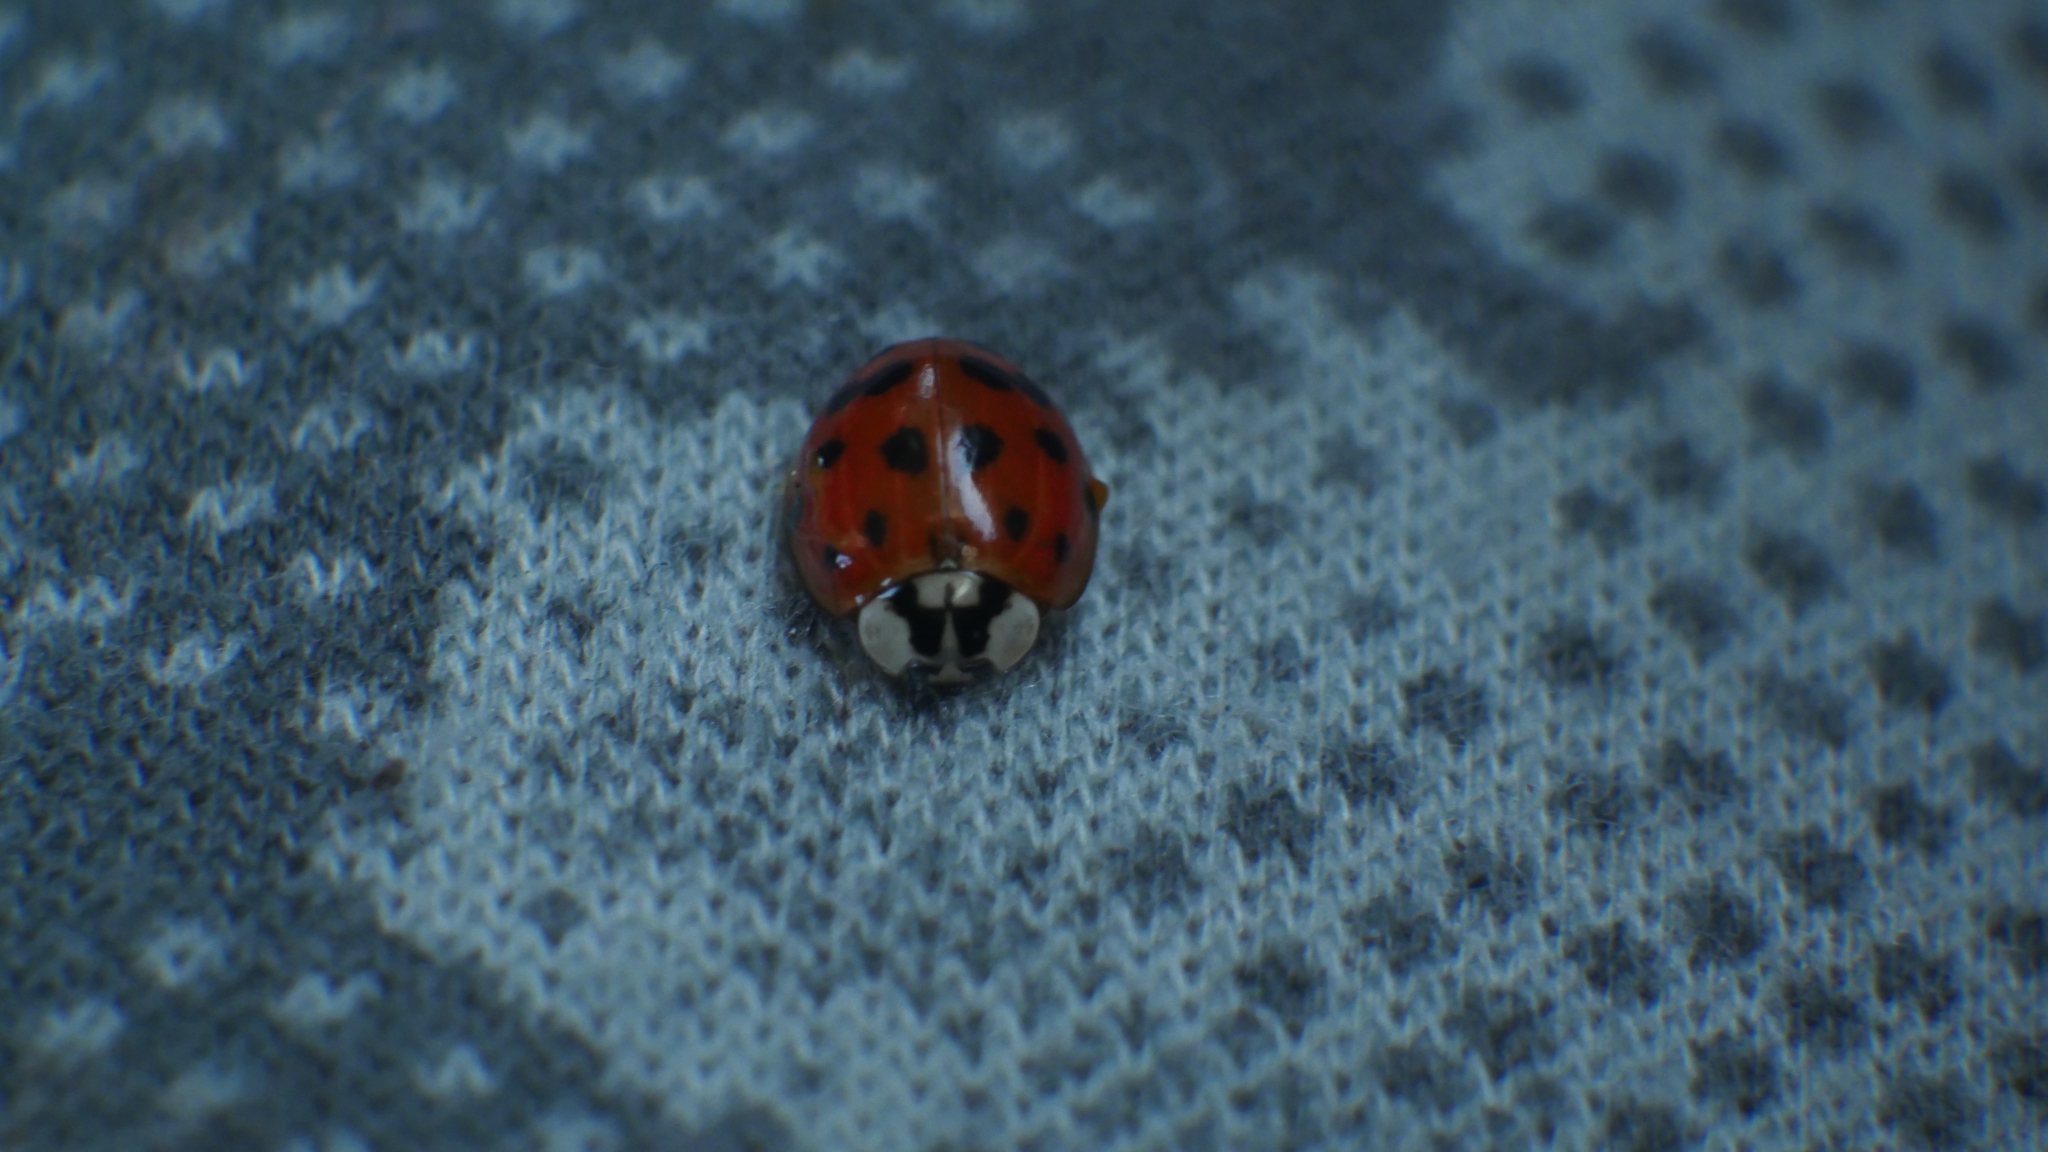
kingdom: Animalia
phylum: Arthropoda
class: Insecta
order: Coleoptera
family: Coccinellidae
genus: Harmonia
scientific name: Harmonia axyridis
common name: Harlequin ladybird
